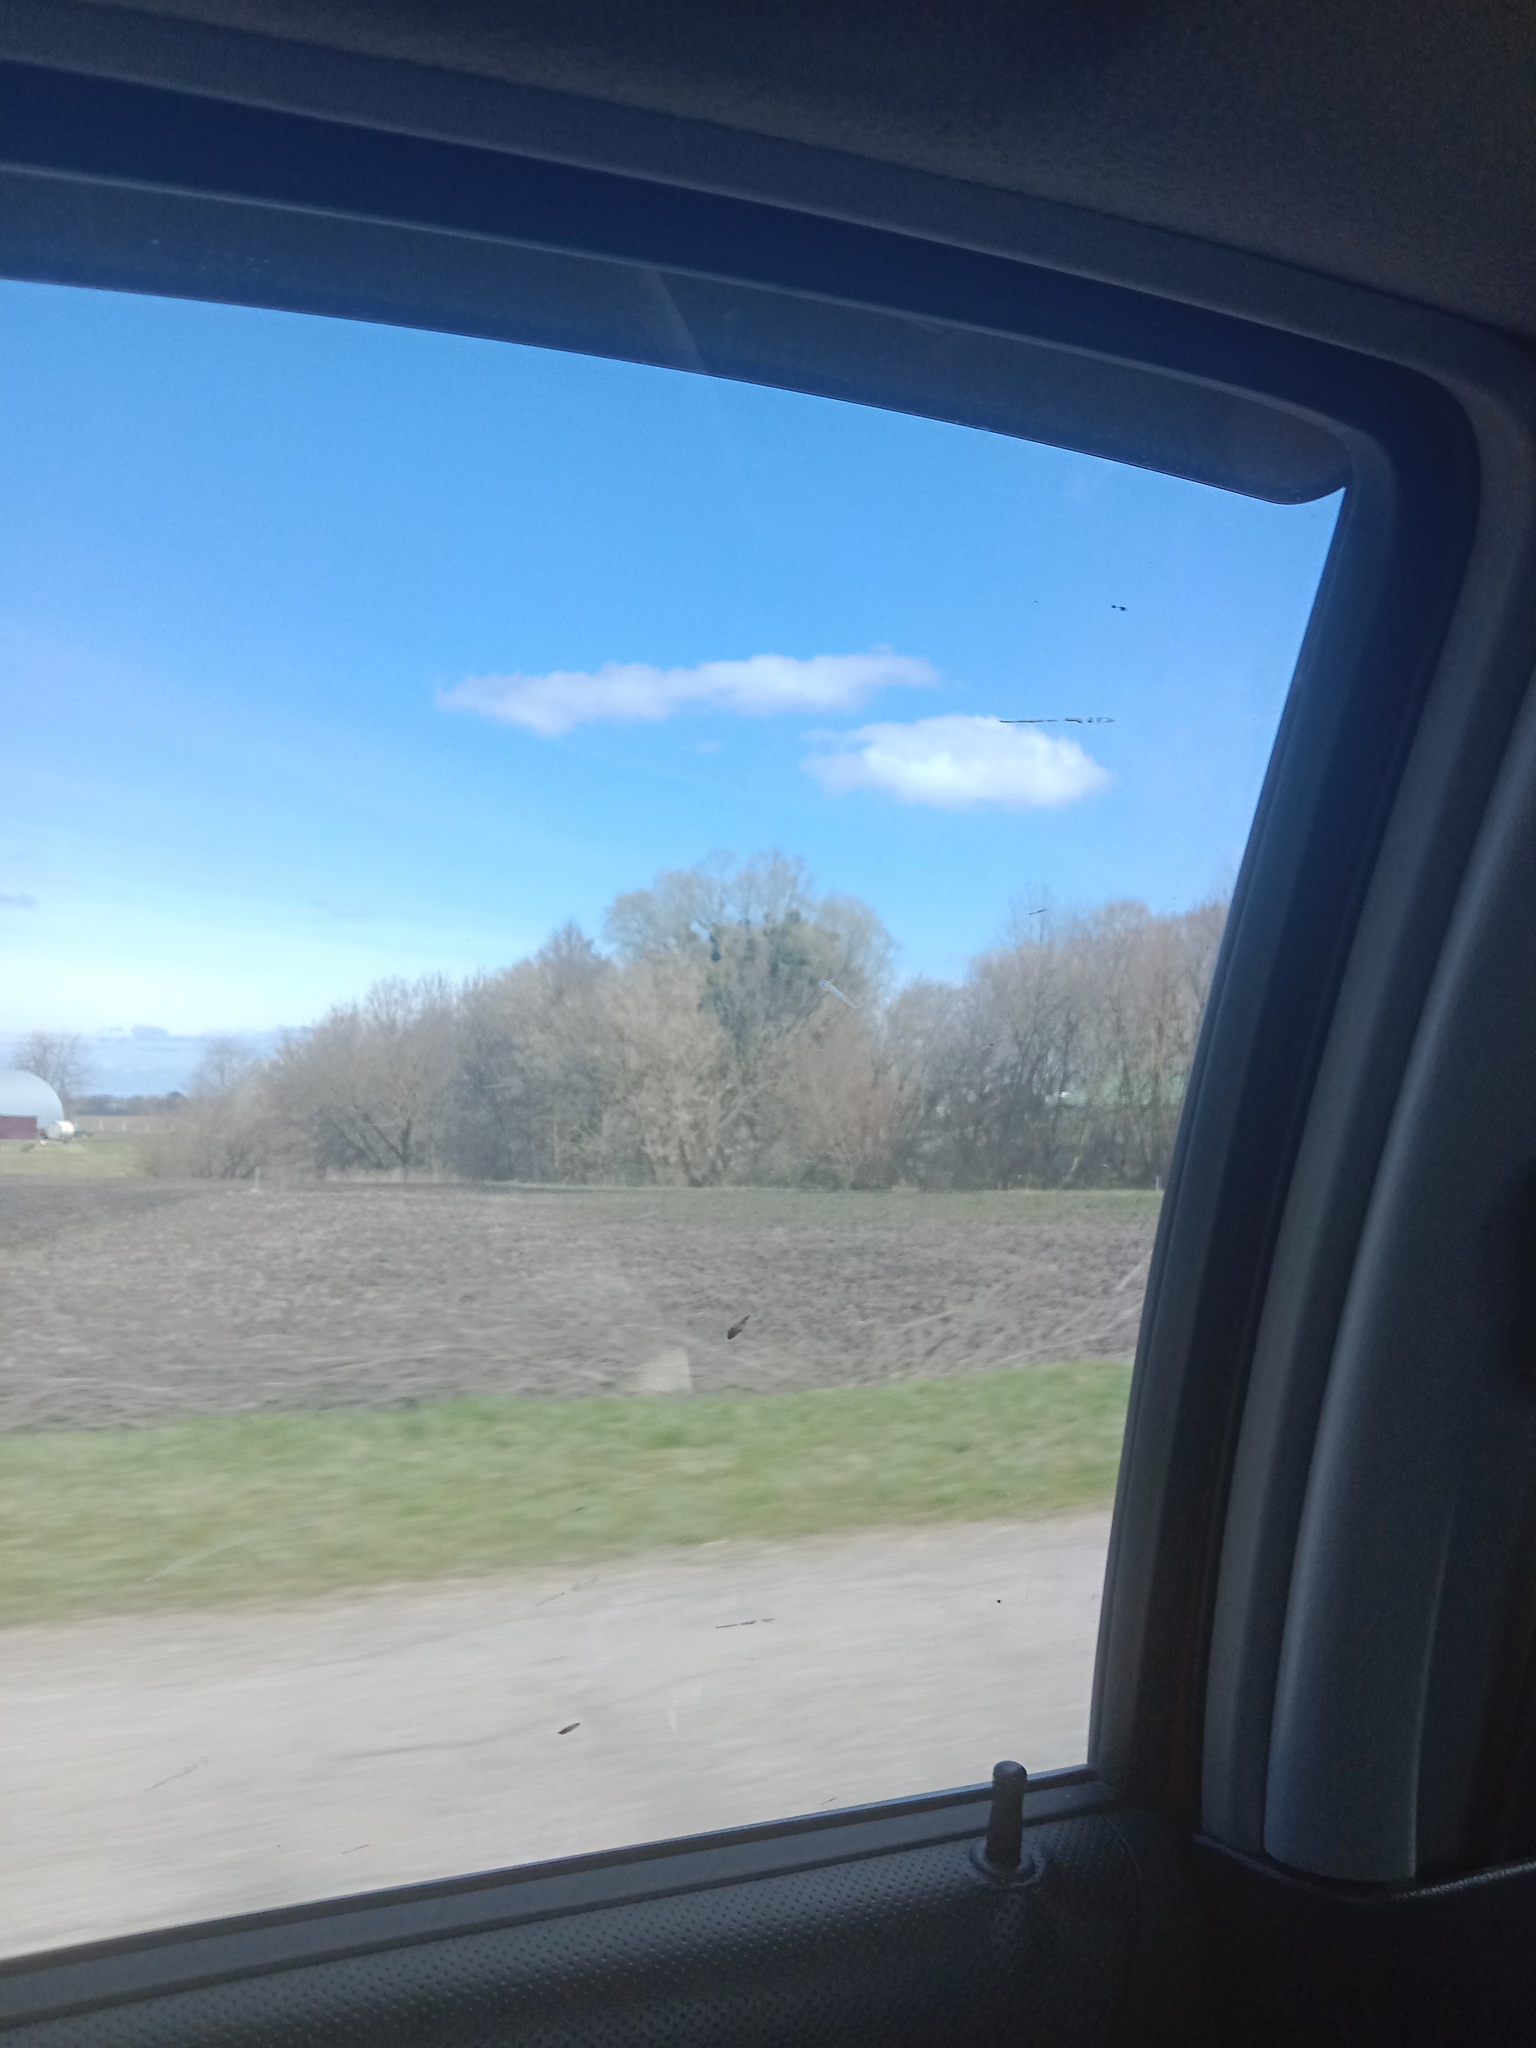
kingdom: Plantae
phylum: Tracheophyta
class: Magnoliopsida
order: Santalales
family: Viscaceae
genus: Viscum
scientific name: Viscum album
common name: Mistletoe
